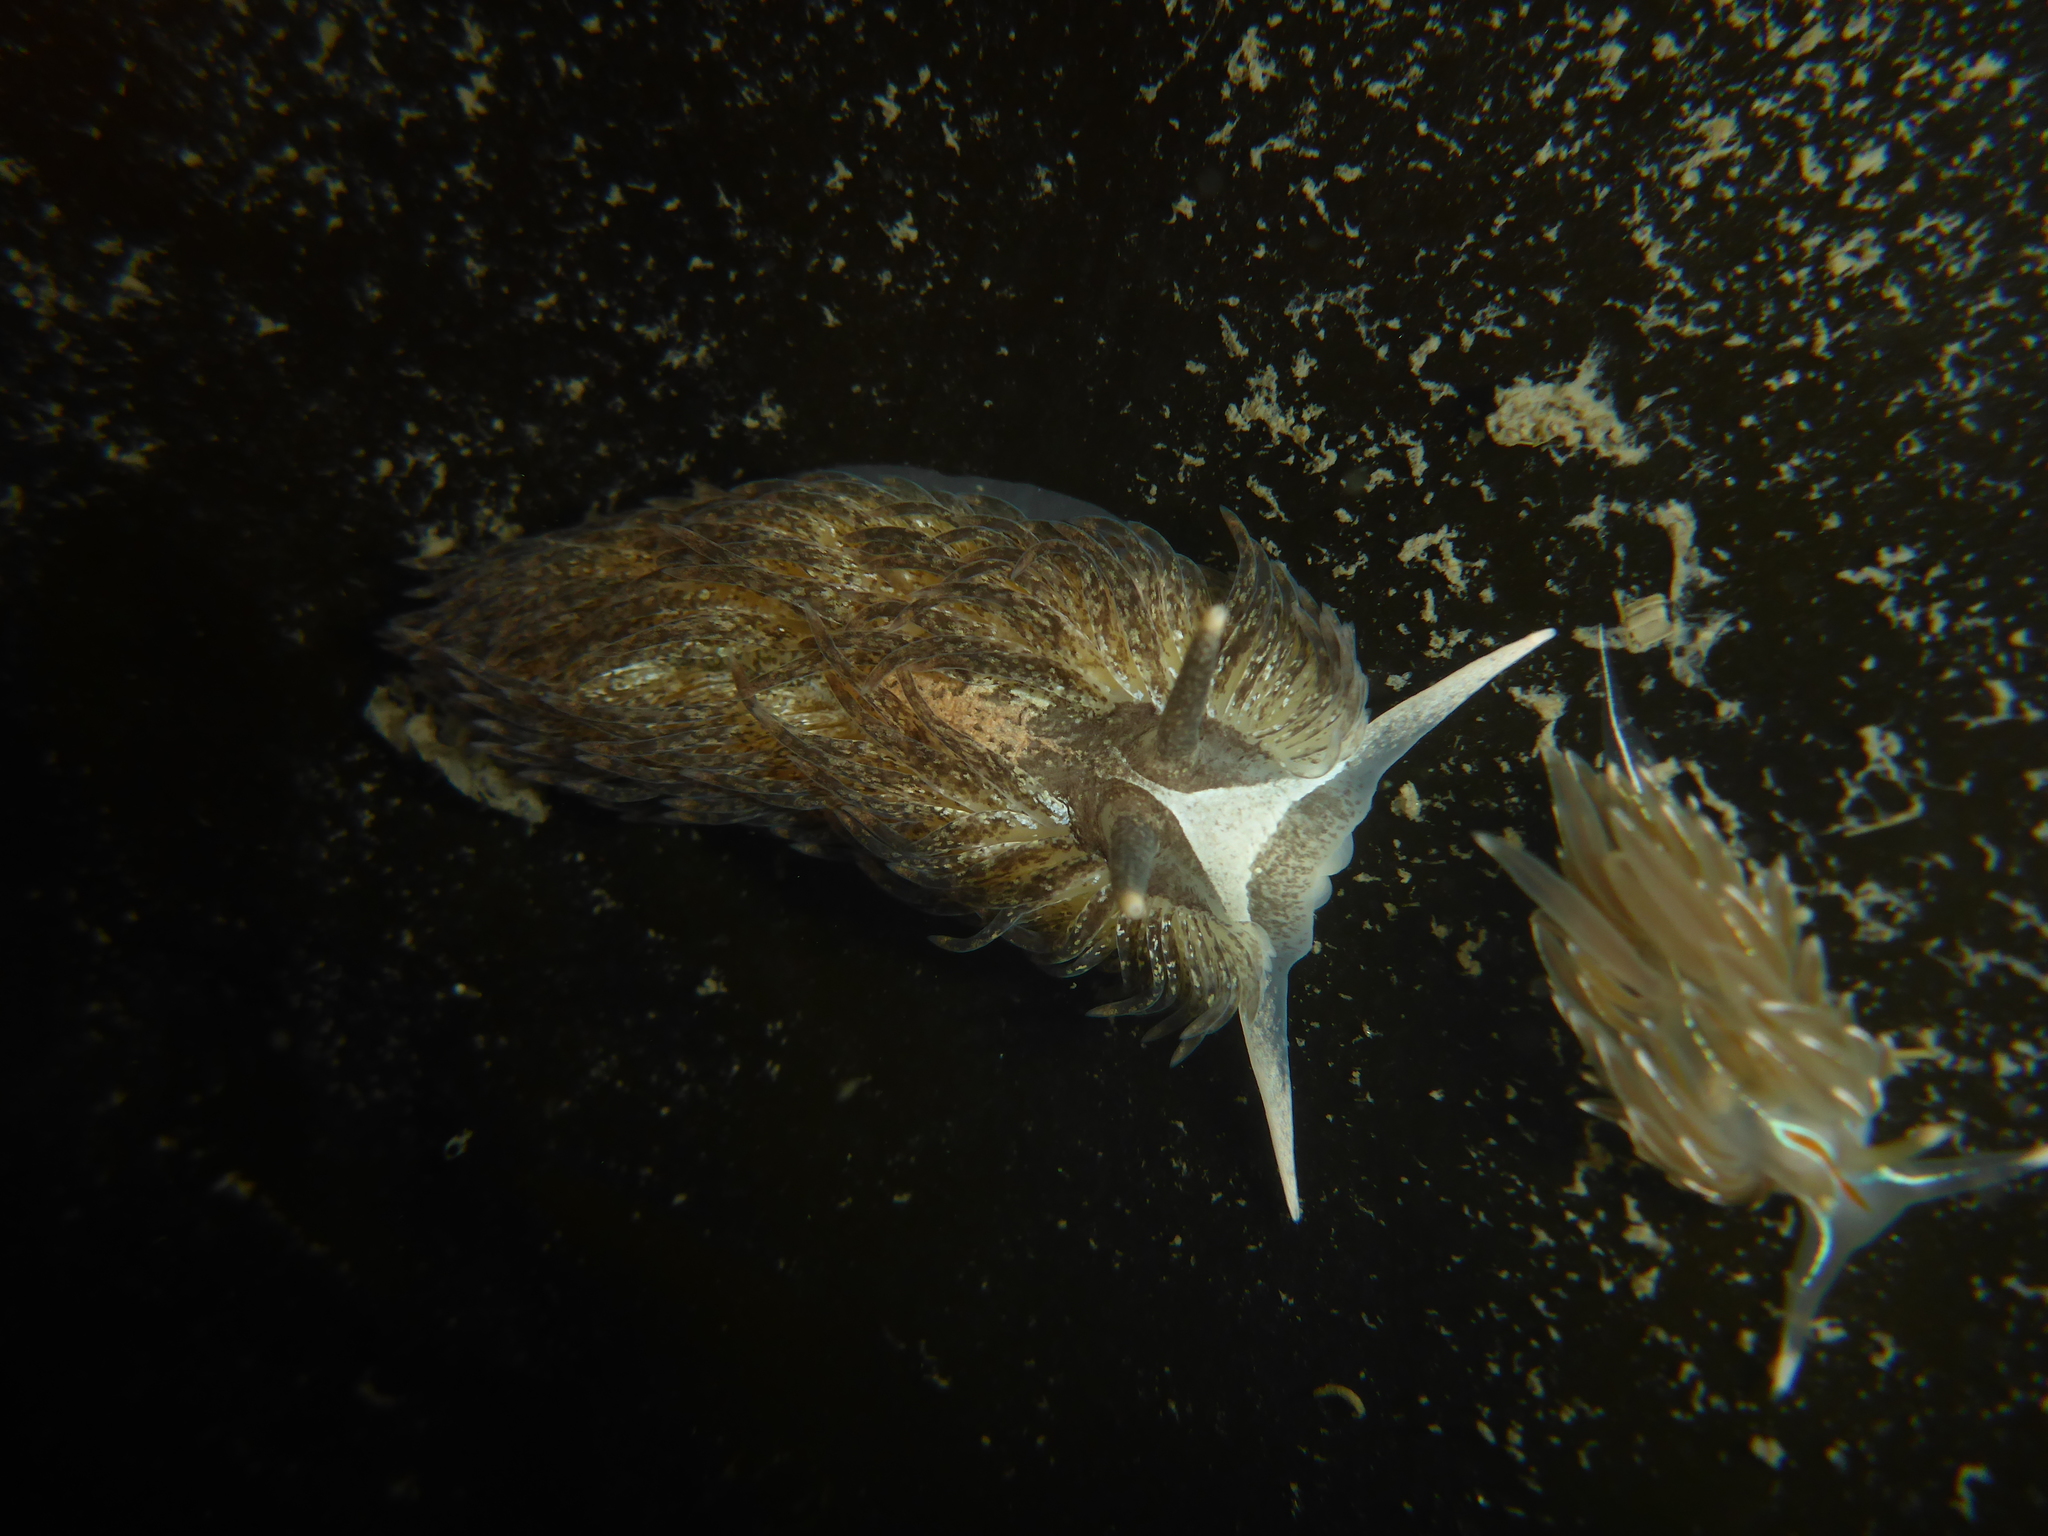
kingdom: Animalia
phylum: Mollusca
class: Gastropoda
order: Nudibranchia
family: Aeolidiidae
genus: Aeolidia
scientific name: Aeolidia papillosa
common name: Common grey sea slug
